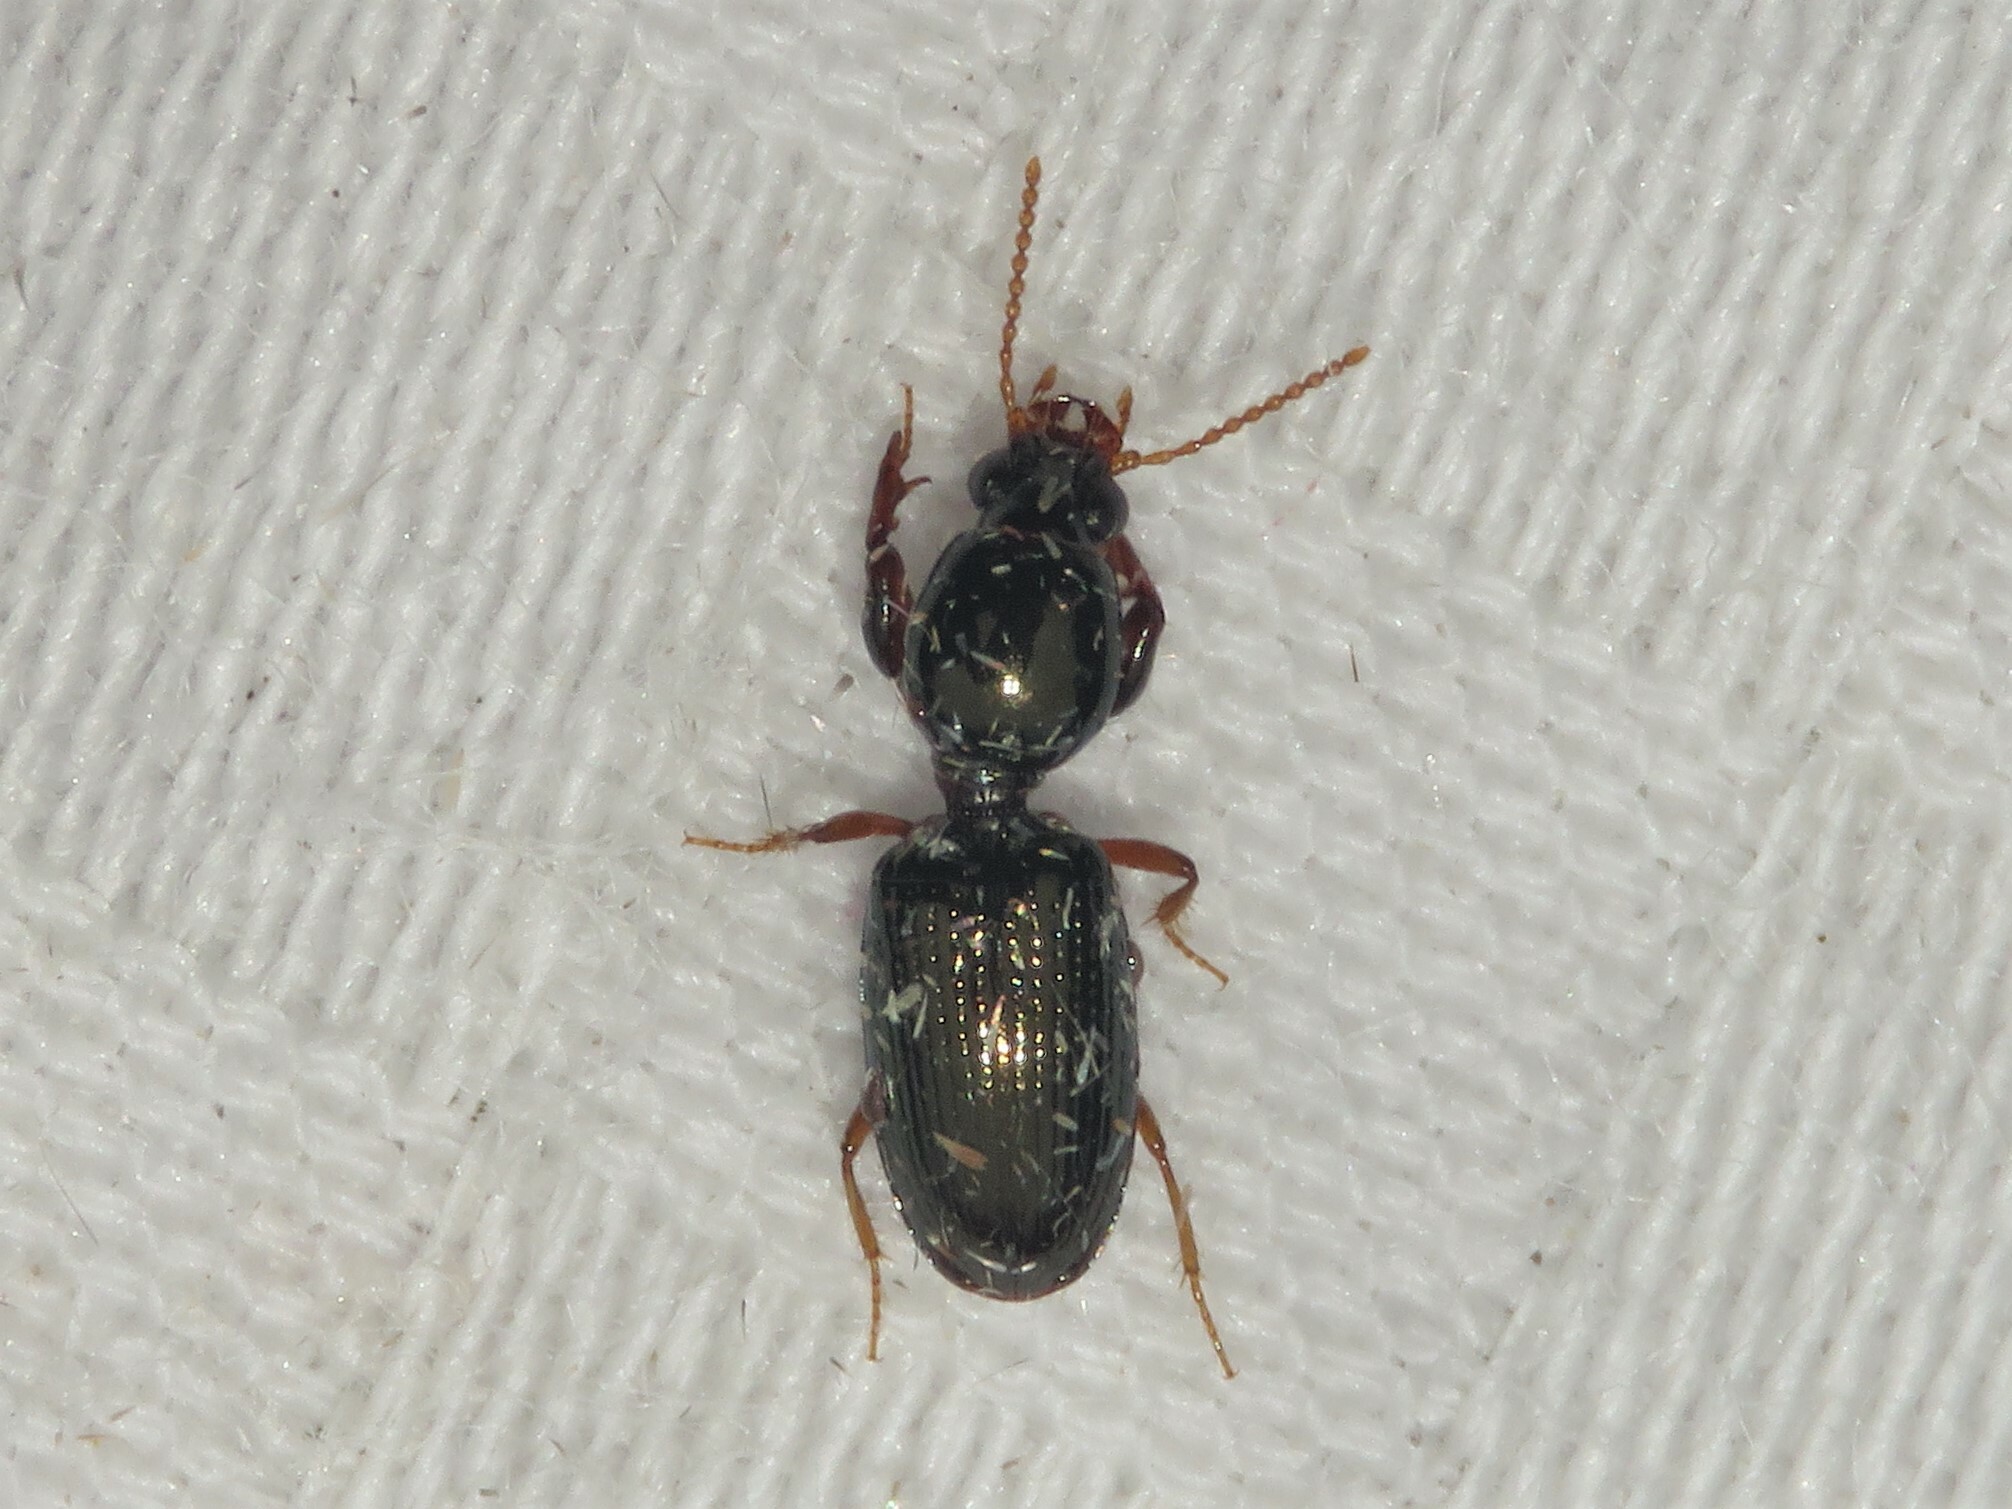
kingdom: Animalia
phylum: Arthropoda
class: Insecta
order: Coleoptera
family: Carabidae
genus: Dyschirius
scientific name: Dyschirius sphaericollis
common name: Round-necked discolored beetle
